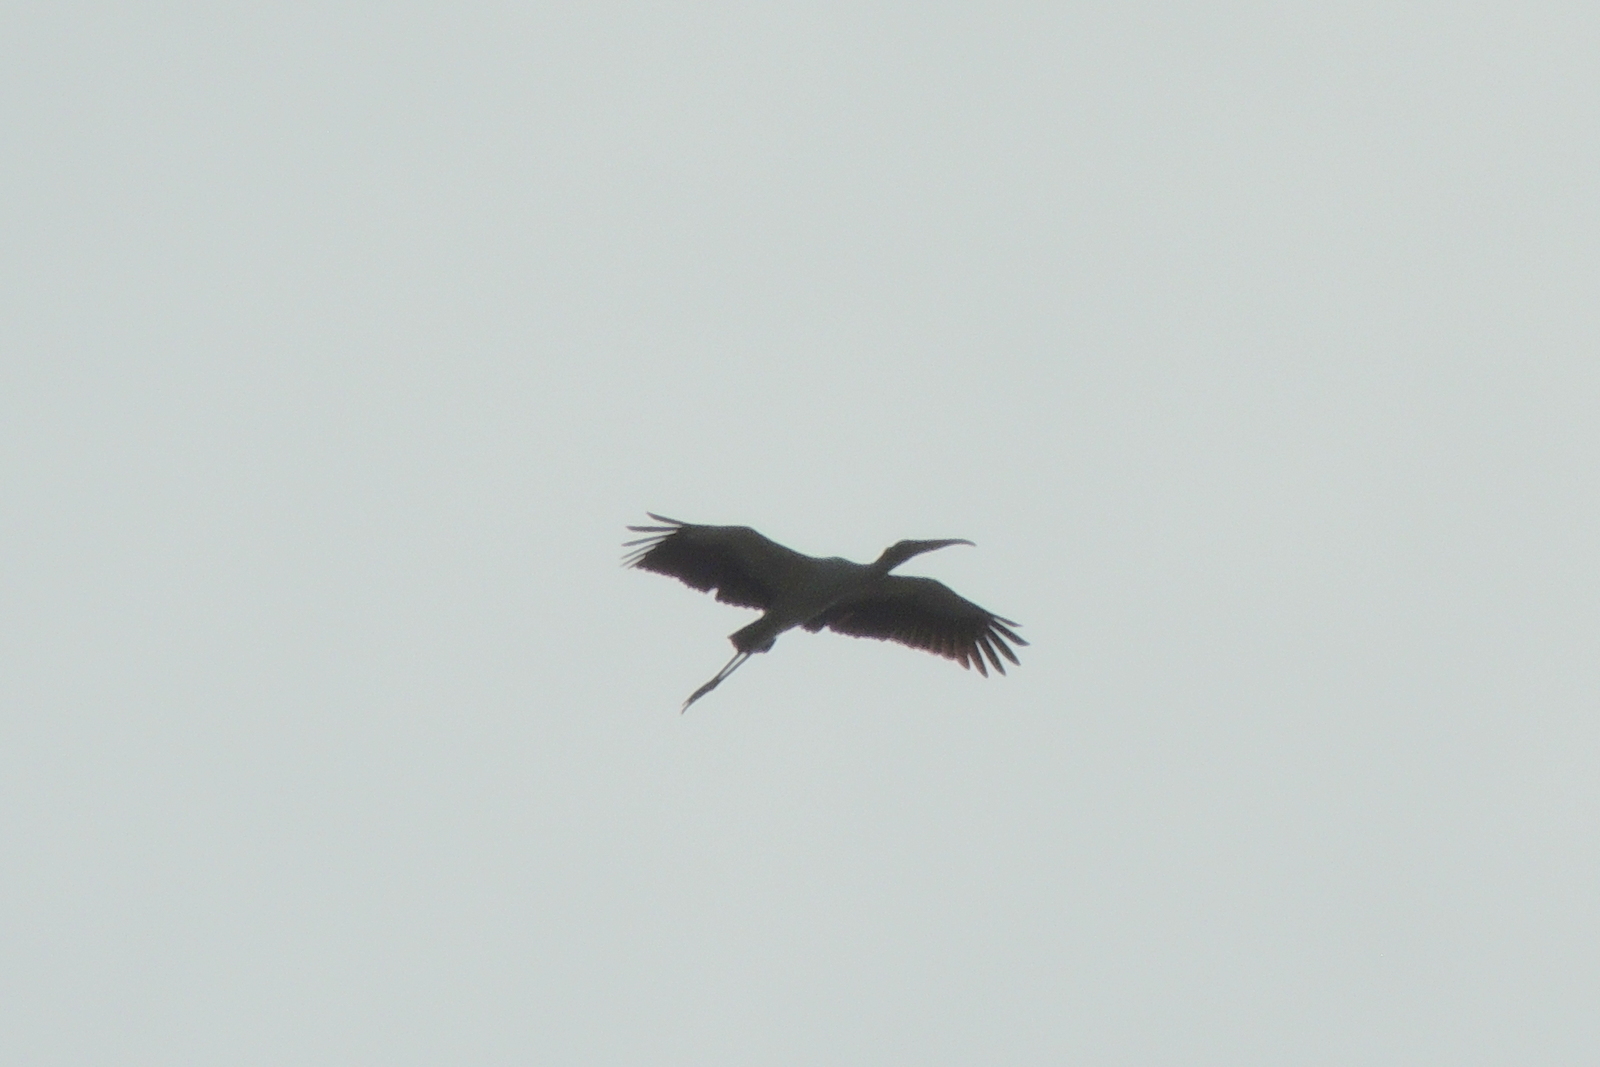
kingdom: Animalia
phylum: Chordata
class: Aves
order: Ciconiiformes
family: Ciconiidae
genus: Mycteria
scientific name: Mycteria americana
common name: Wood stork
